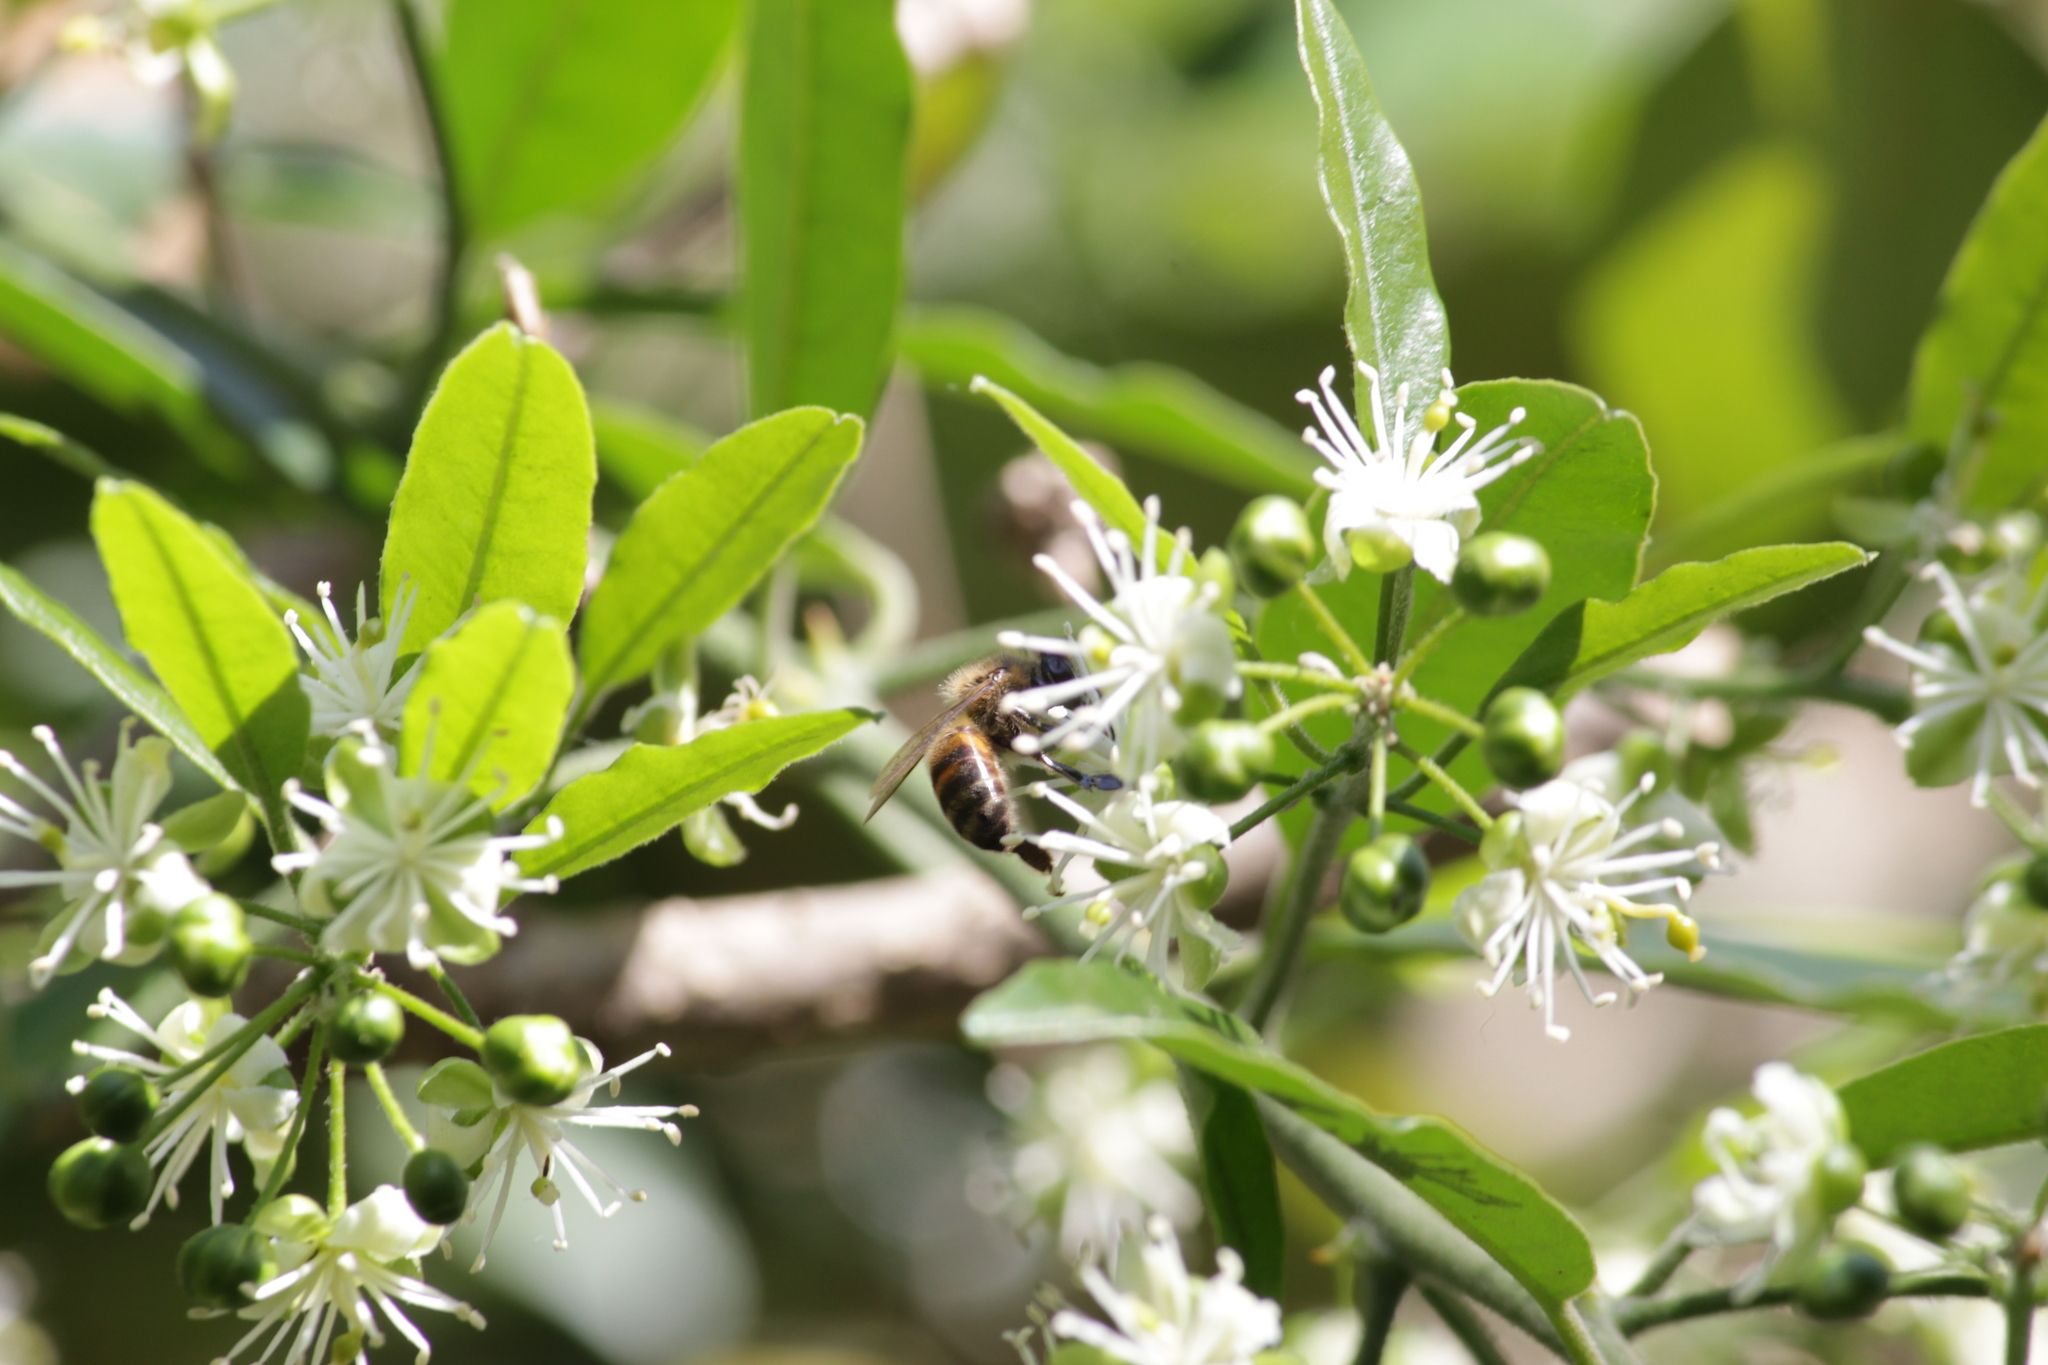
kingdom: Animalia
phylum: Arthropoda
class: Insecta
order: Hymenoptera
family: Apidae
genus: Apis
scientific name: Apis mellifera
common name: Honey bee
